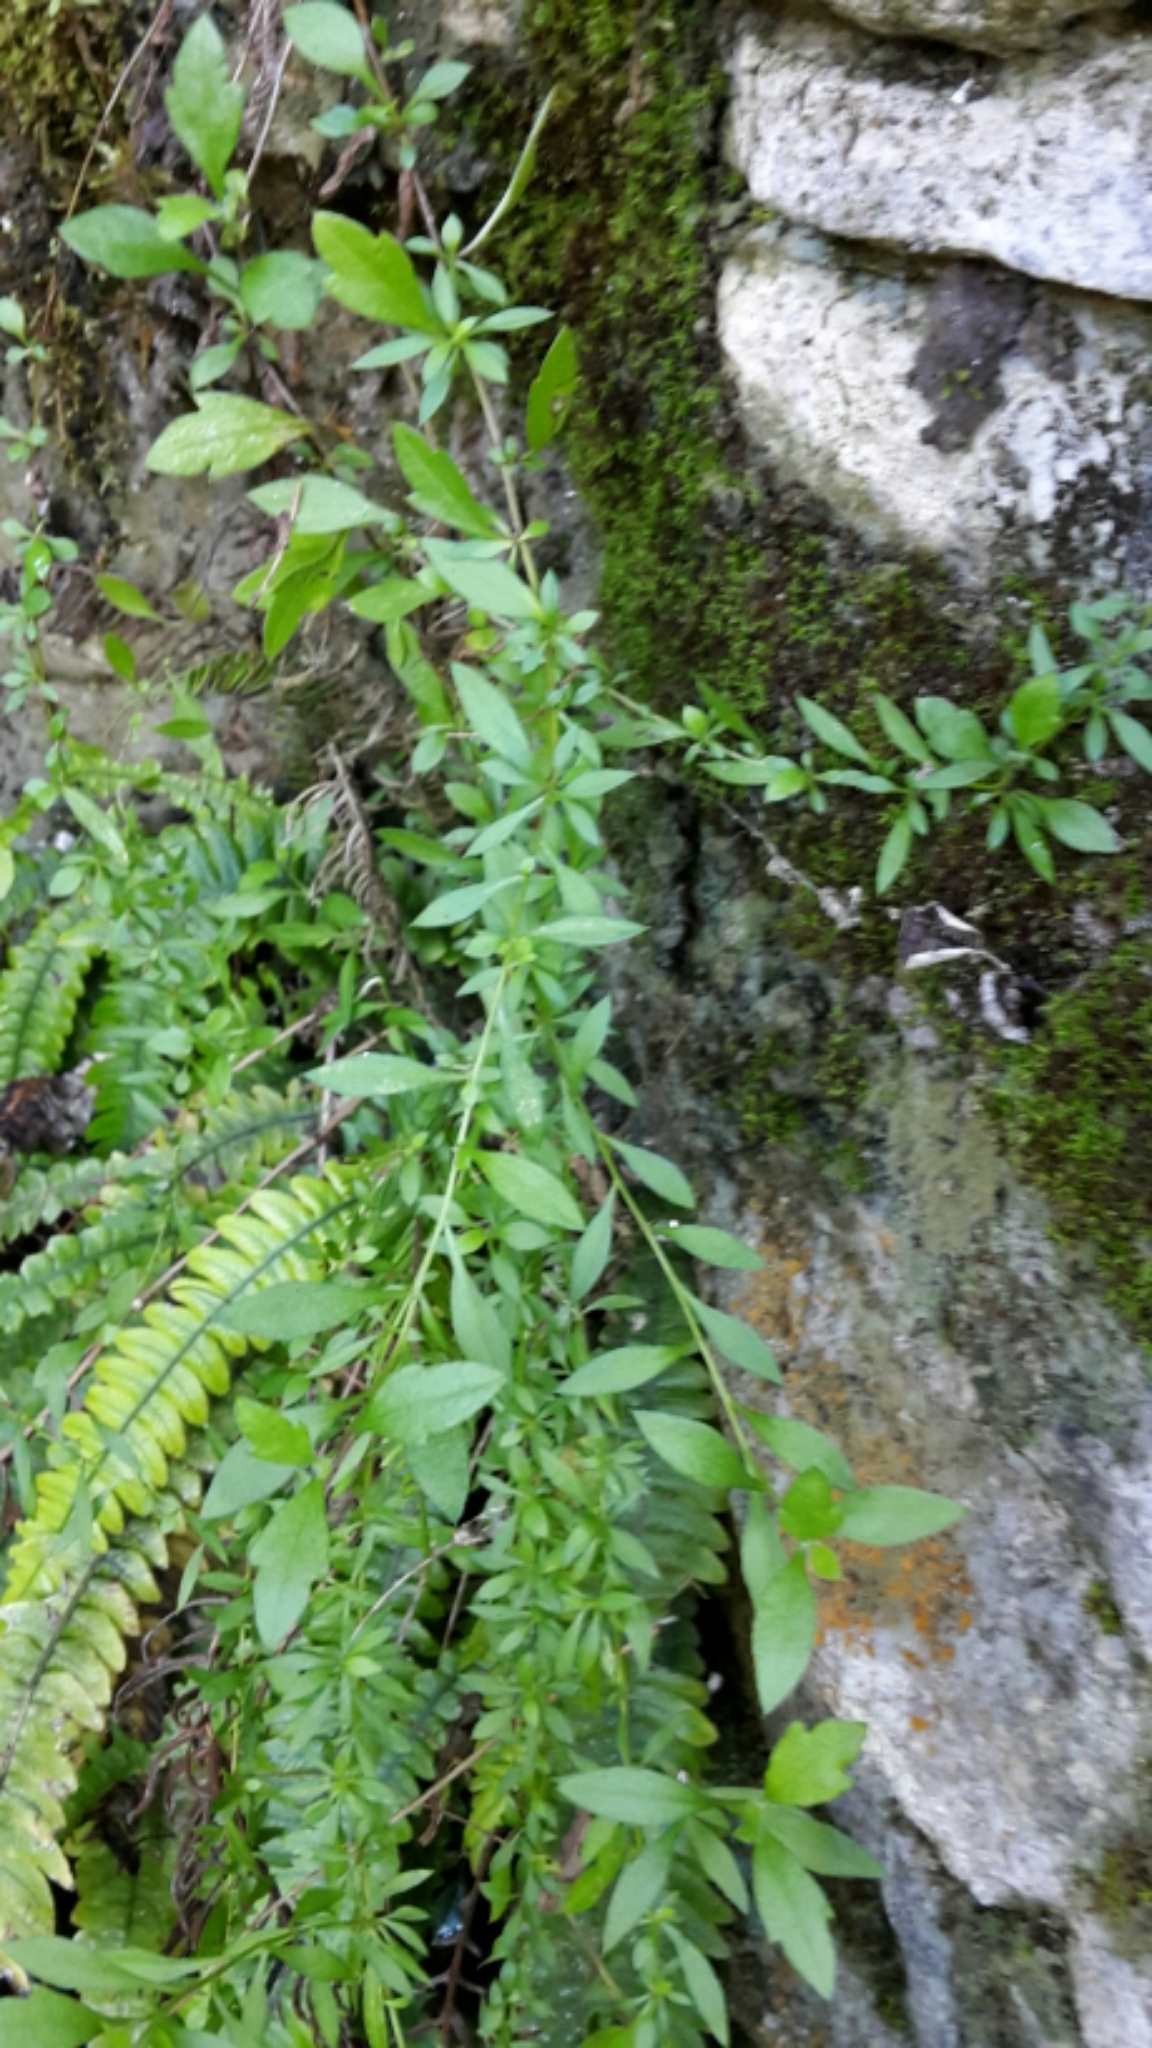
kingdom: Plantae
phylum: Tracheophyta
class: Magnoliopsida
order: Asterales
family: Asteraceae
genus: Erigeron
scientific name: Erigeron karvinskianus
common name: Mexican fleabane
